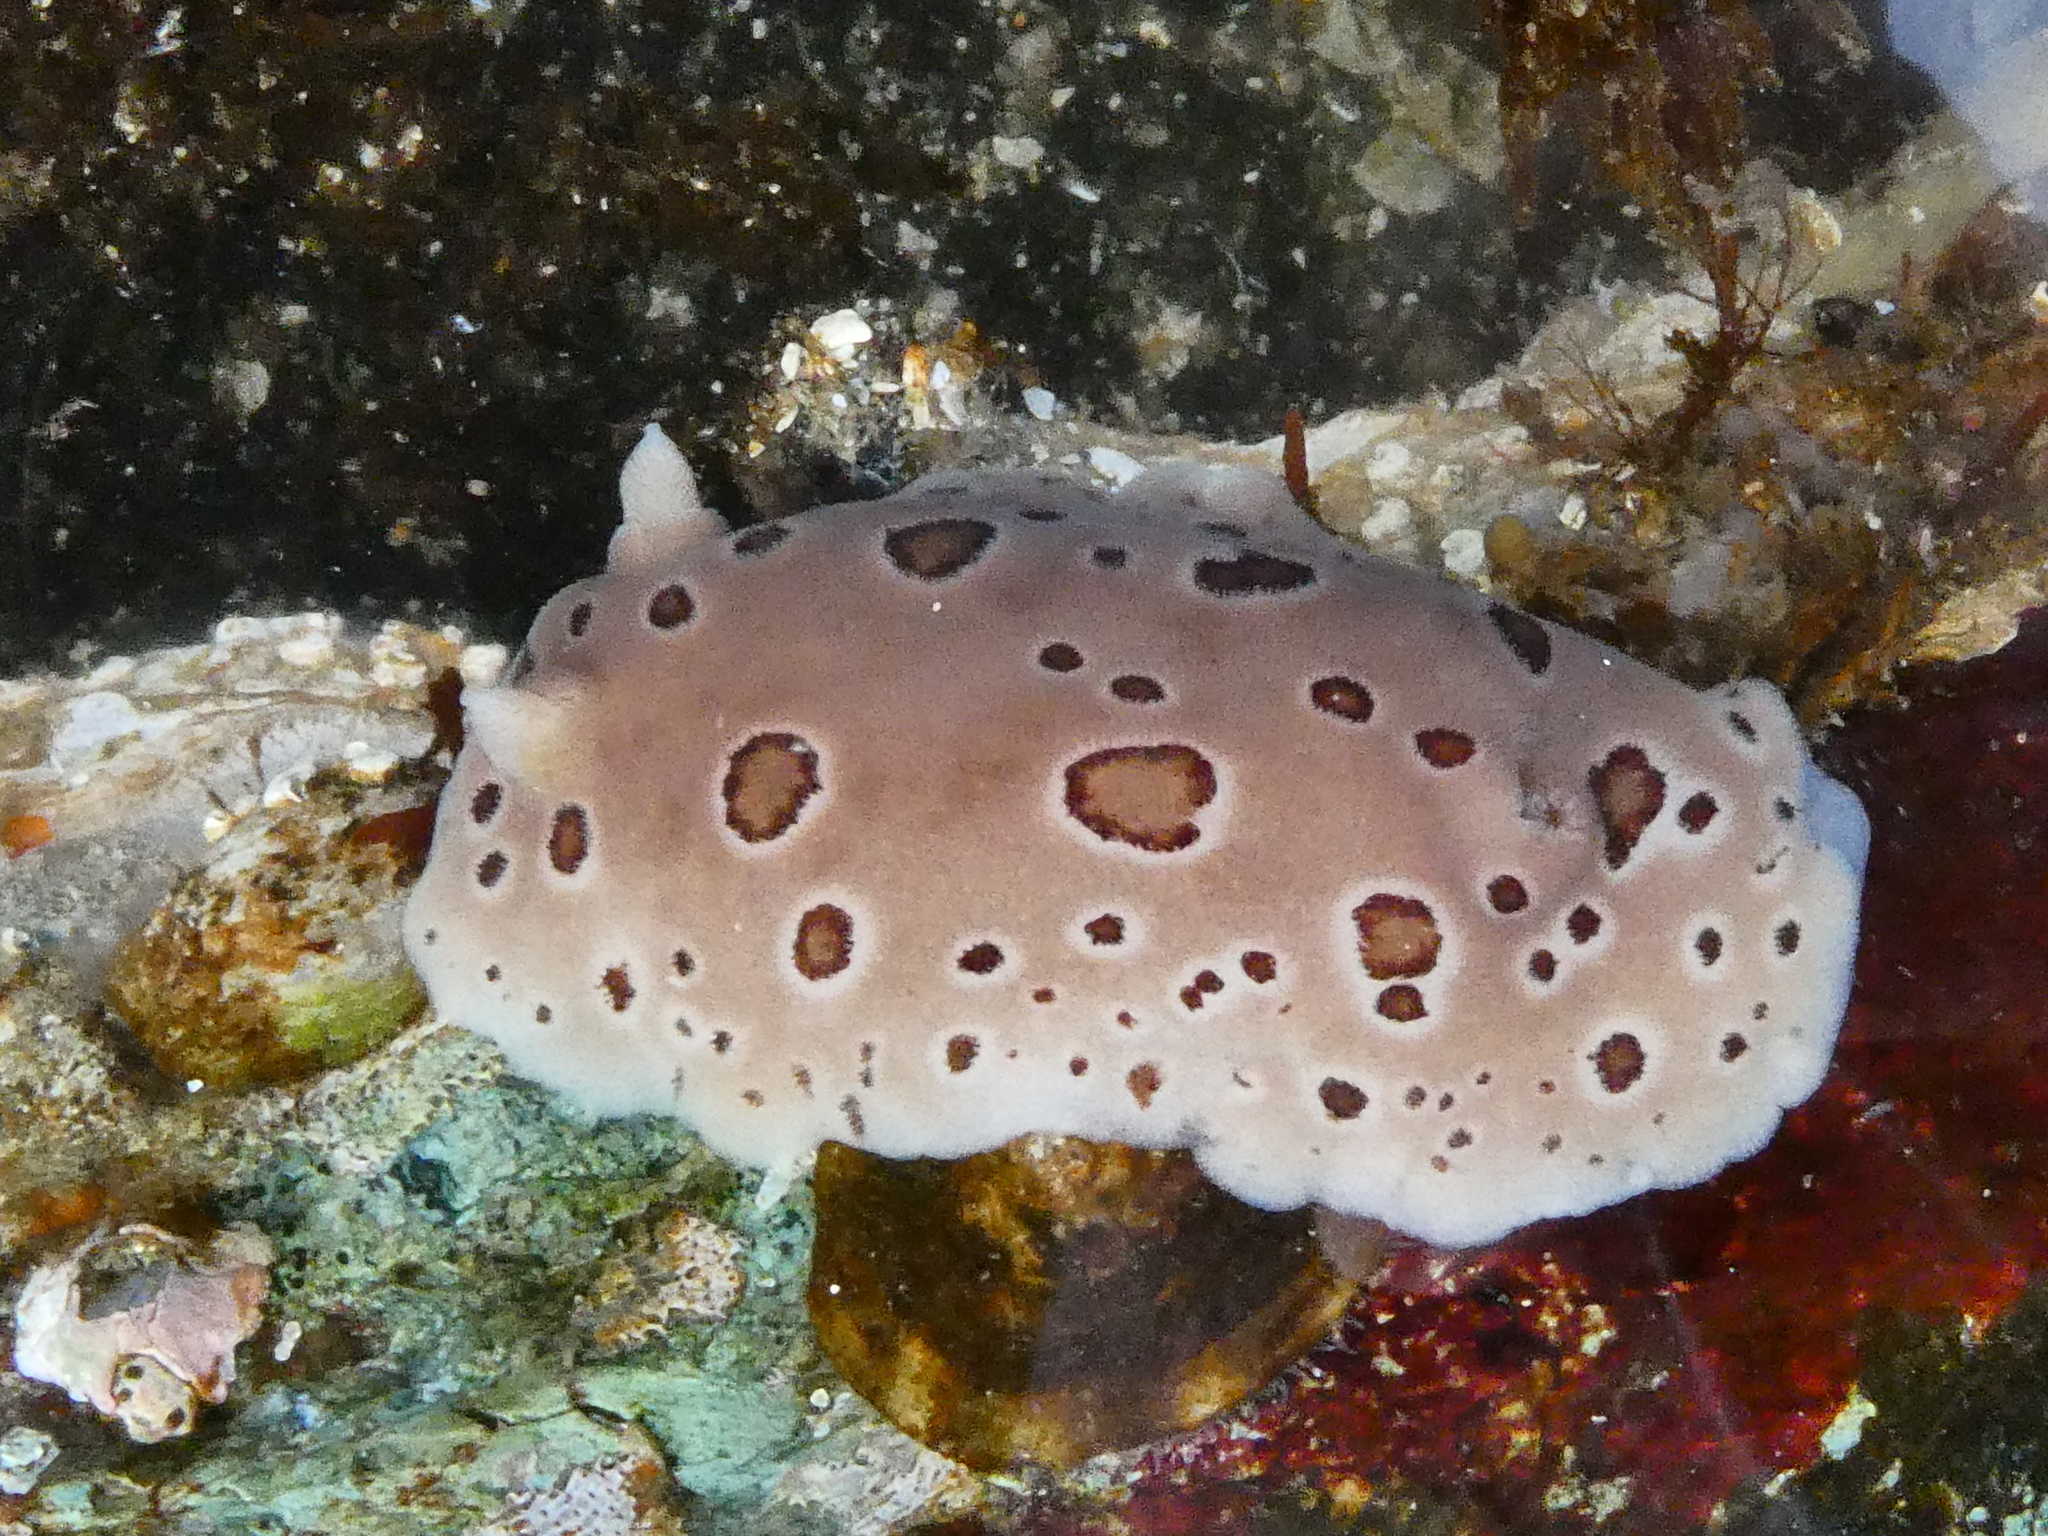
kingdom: Animalia
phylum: Mollusca
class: Gastropoda
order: Nudibranchia
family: Discodorididae
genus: Diaulula
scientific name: Diaulula odonoghuei
